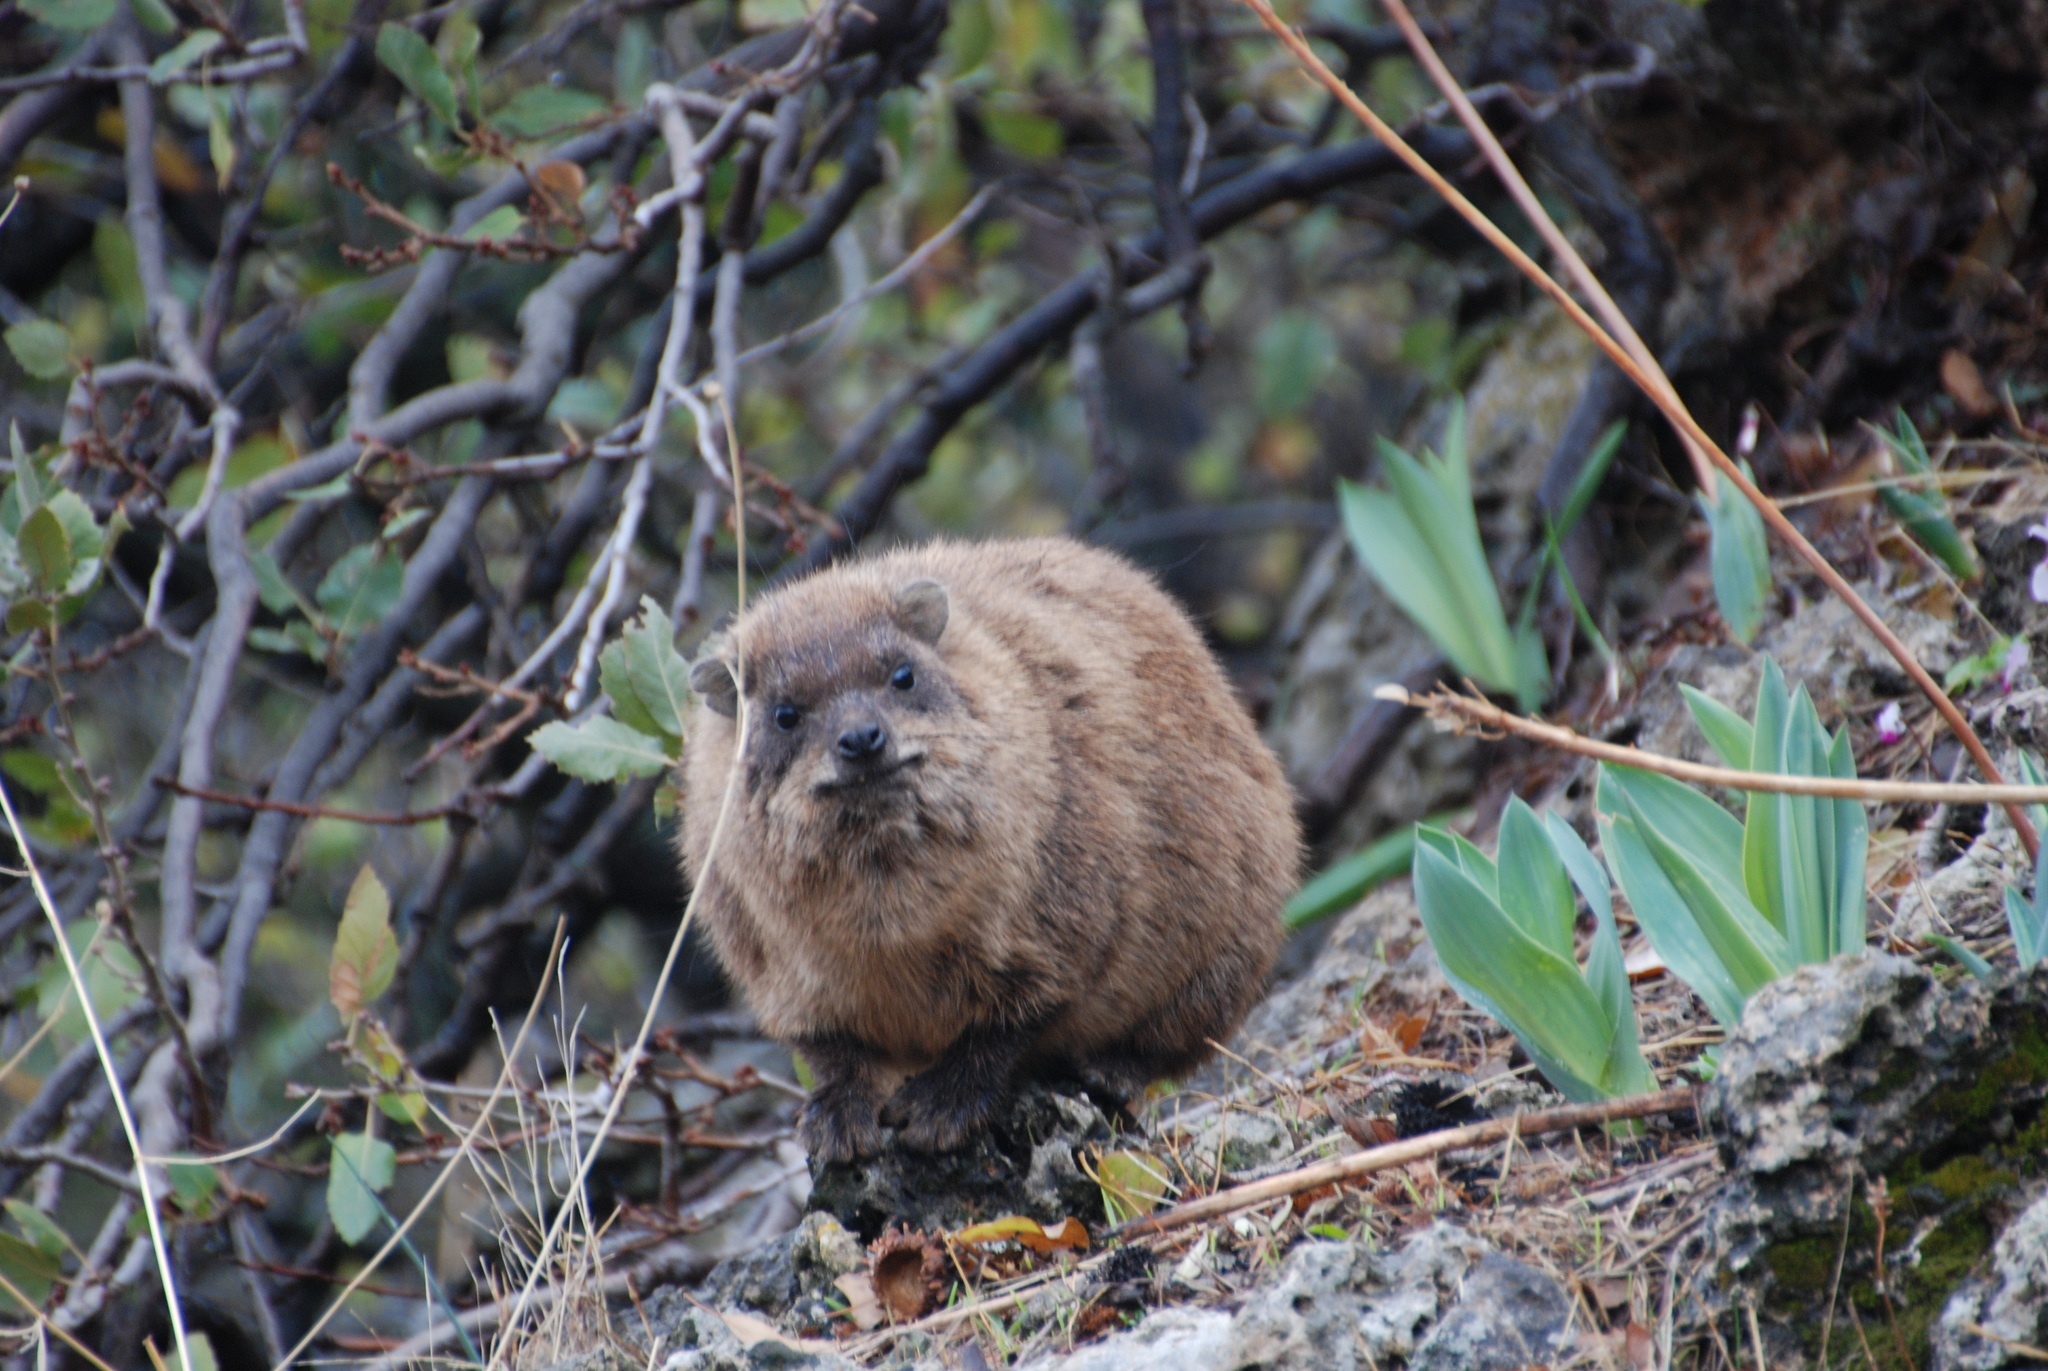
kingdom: Animalia
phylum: Chordata
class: Mammalia
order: Hyracoidea
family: Procaviidae
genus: Procavia
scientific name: Procavia capensis
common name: Rock hyrax
